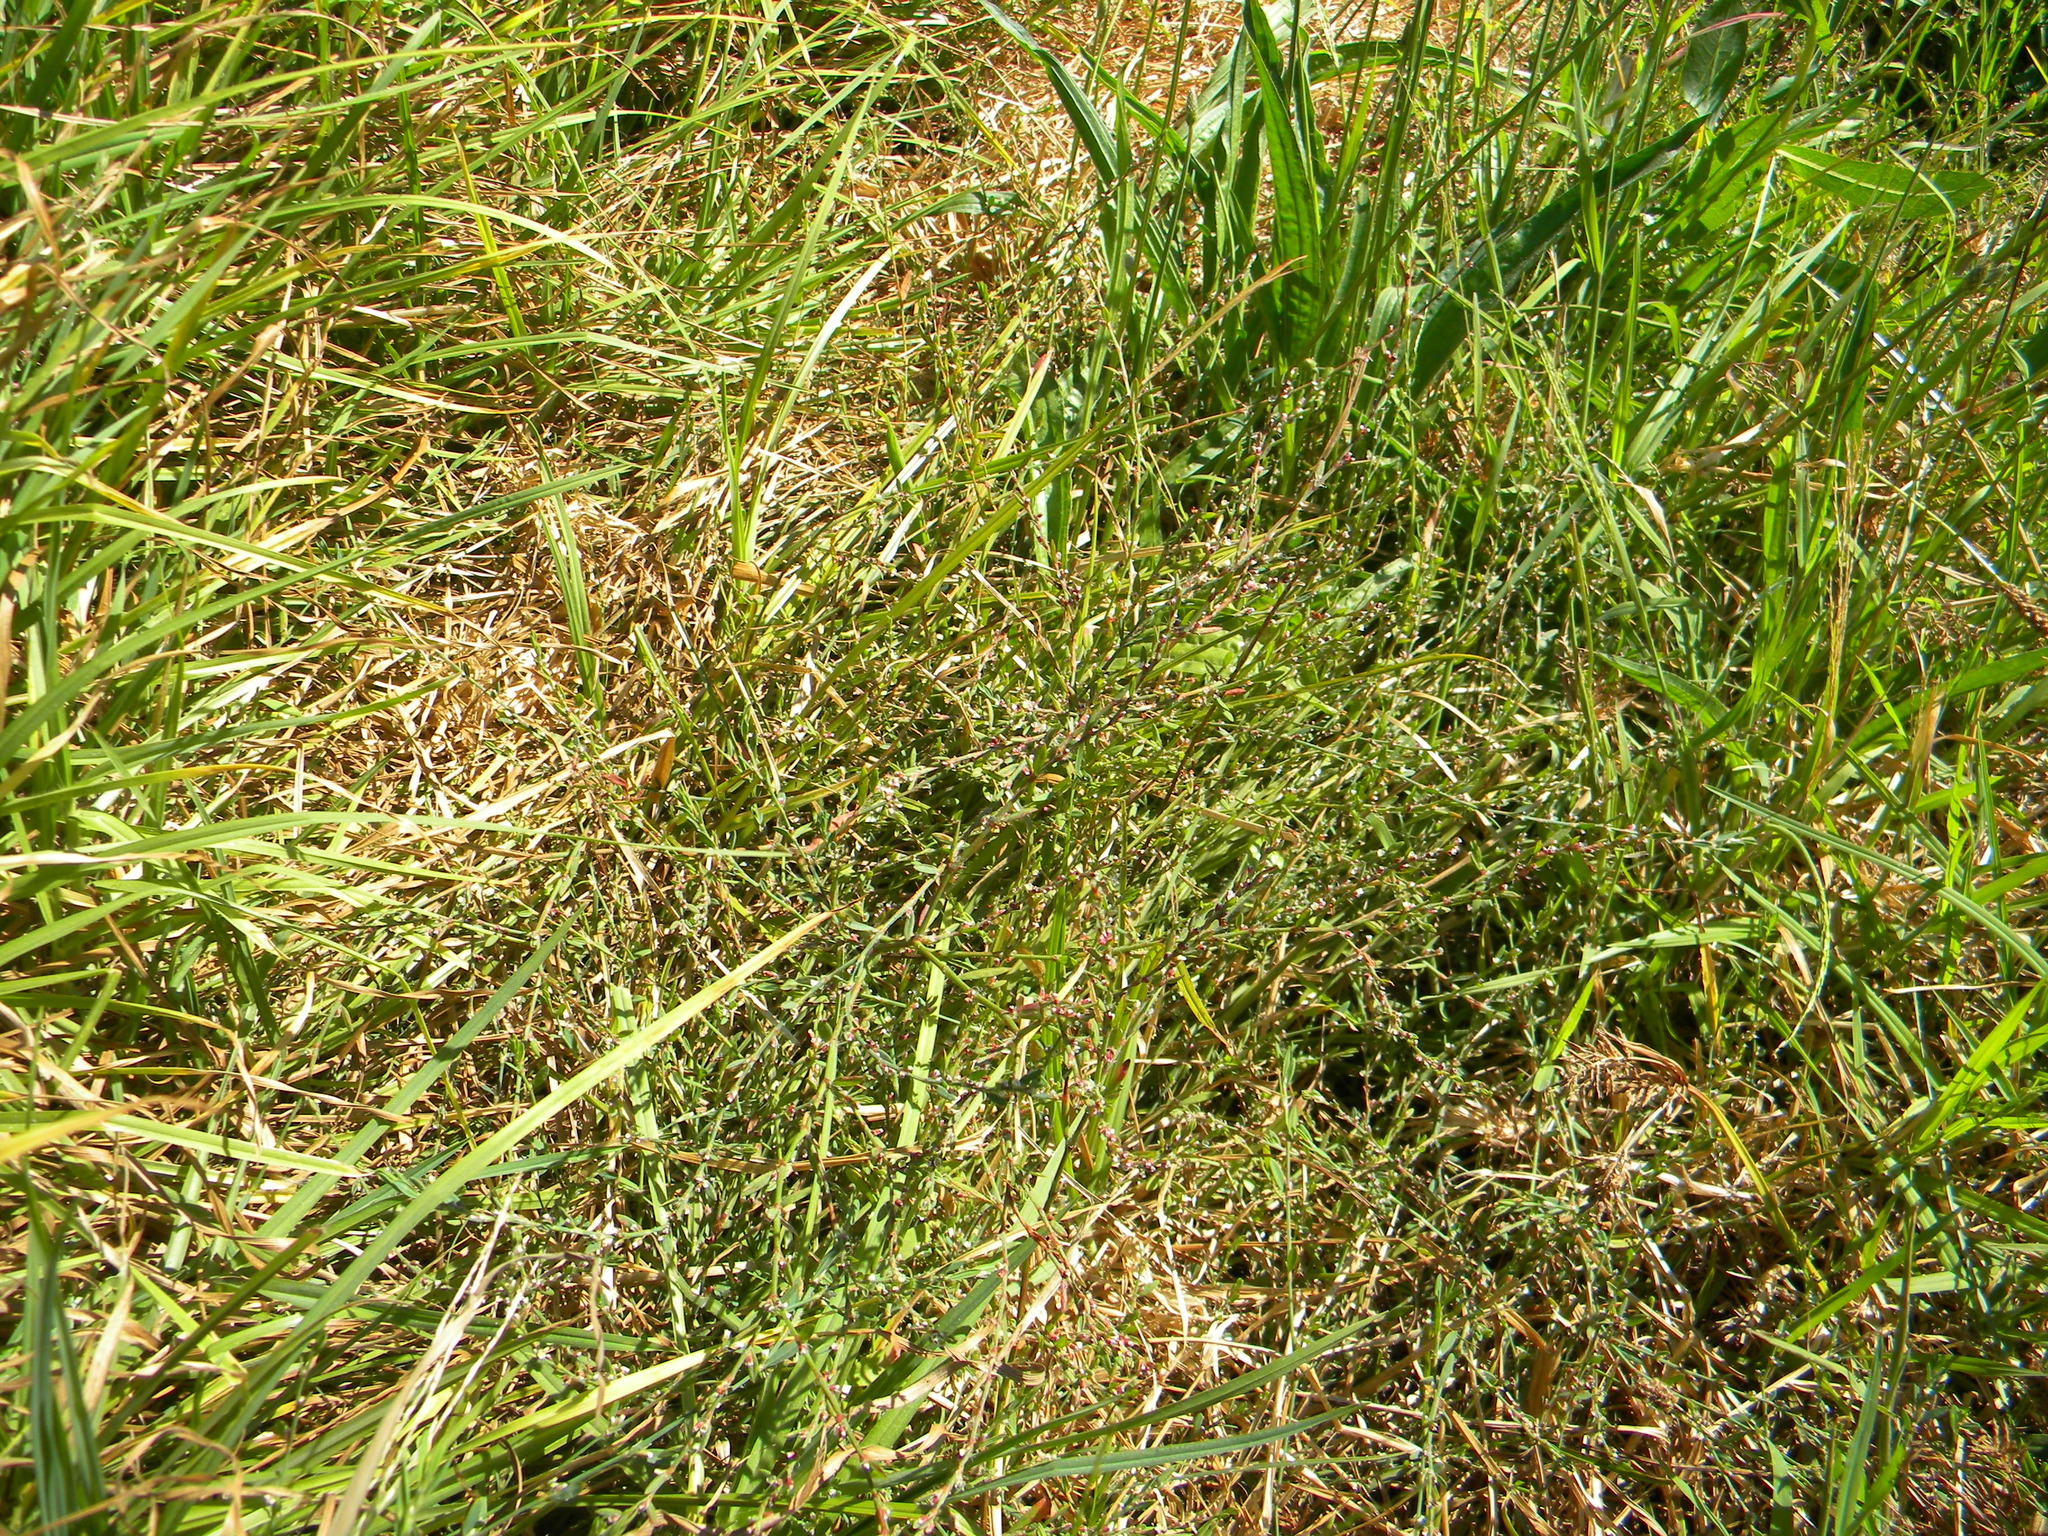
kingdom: Plantae
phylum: Tracheophyta
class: Magnoliopsida
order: Caryophyllales
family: Polygonaceae
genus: Polygonum
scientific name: Polygonum aviculare
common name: Prostrate knotweed
